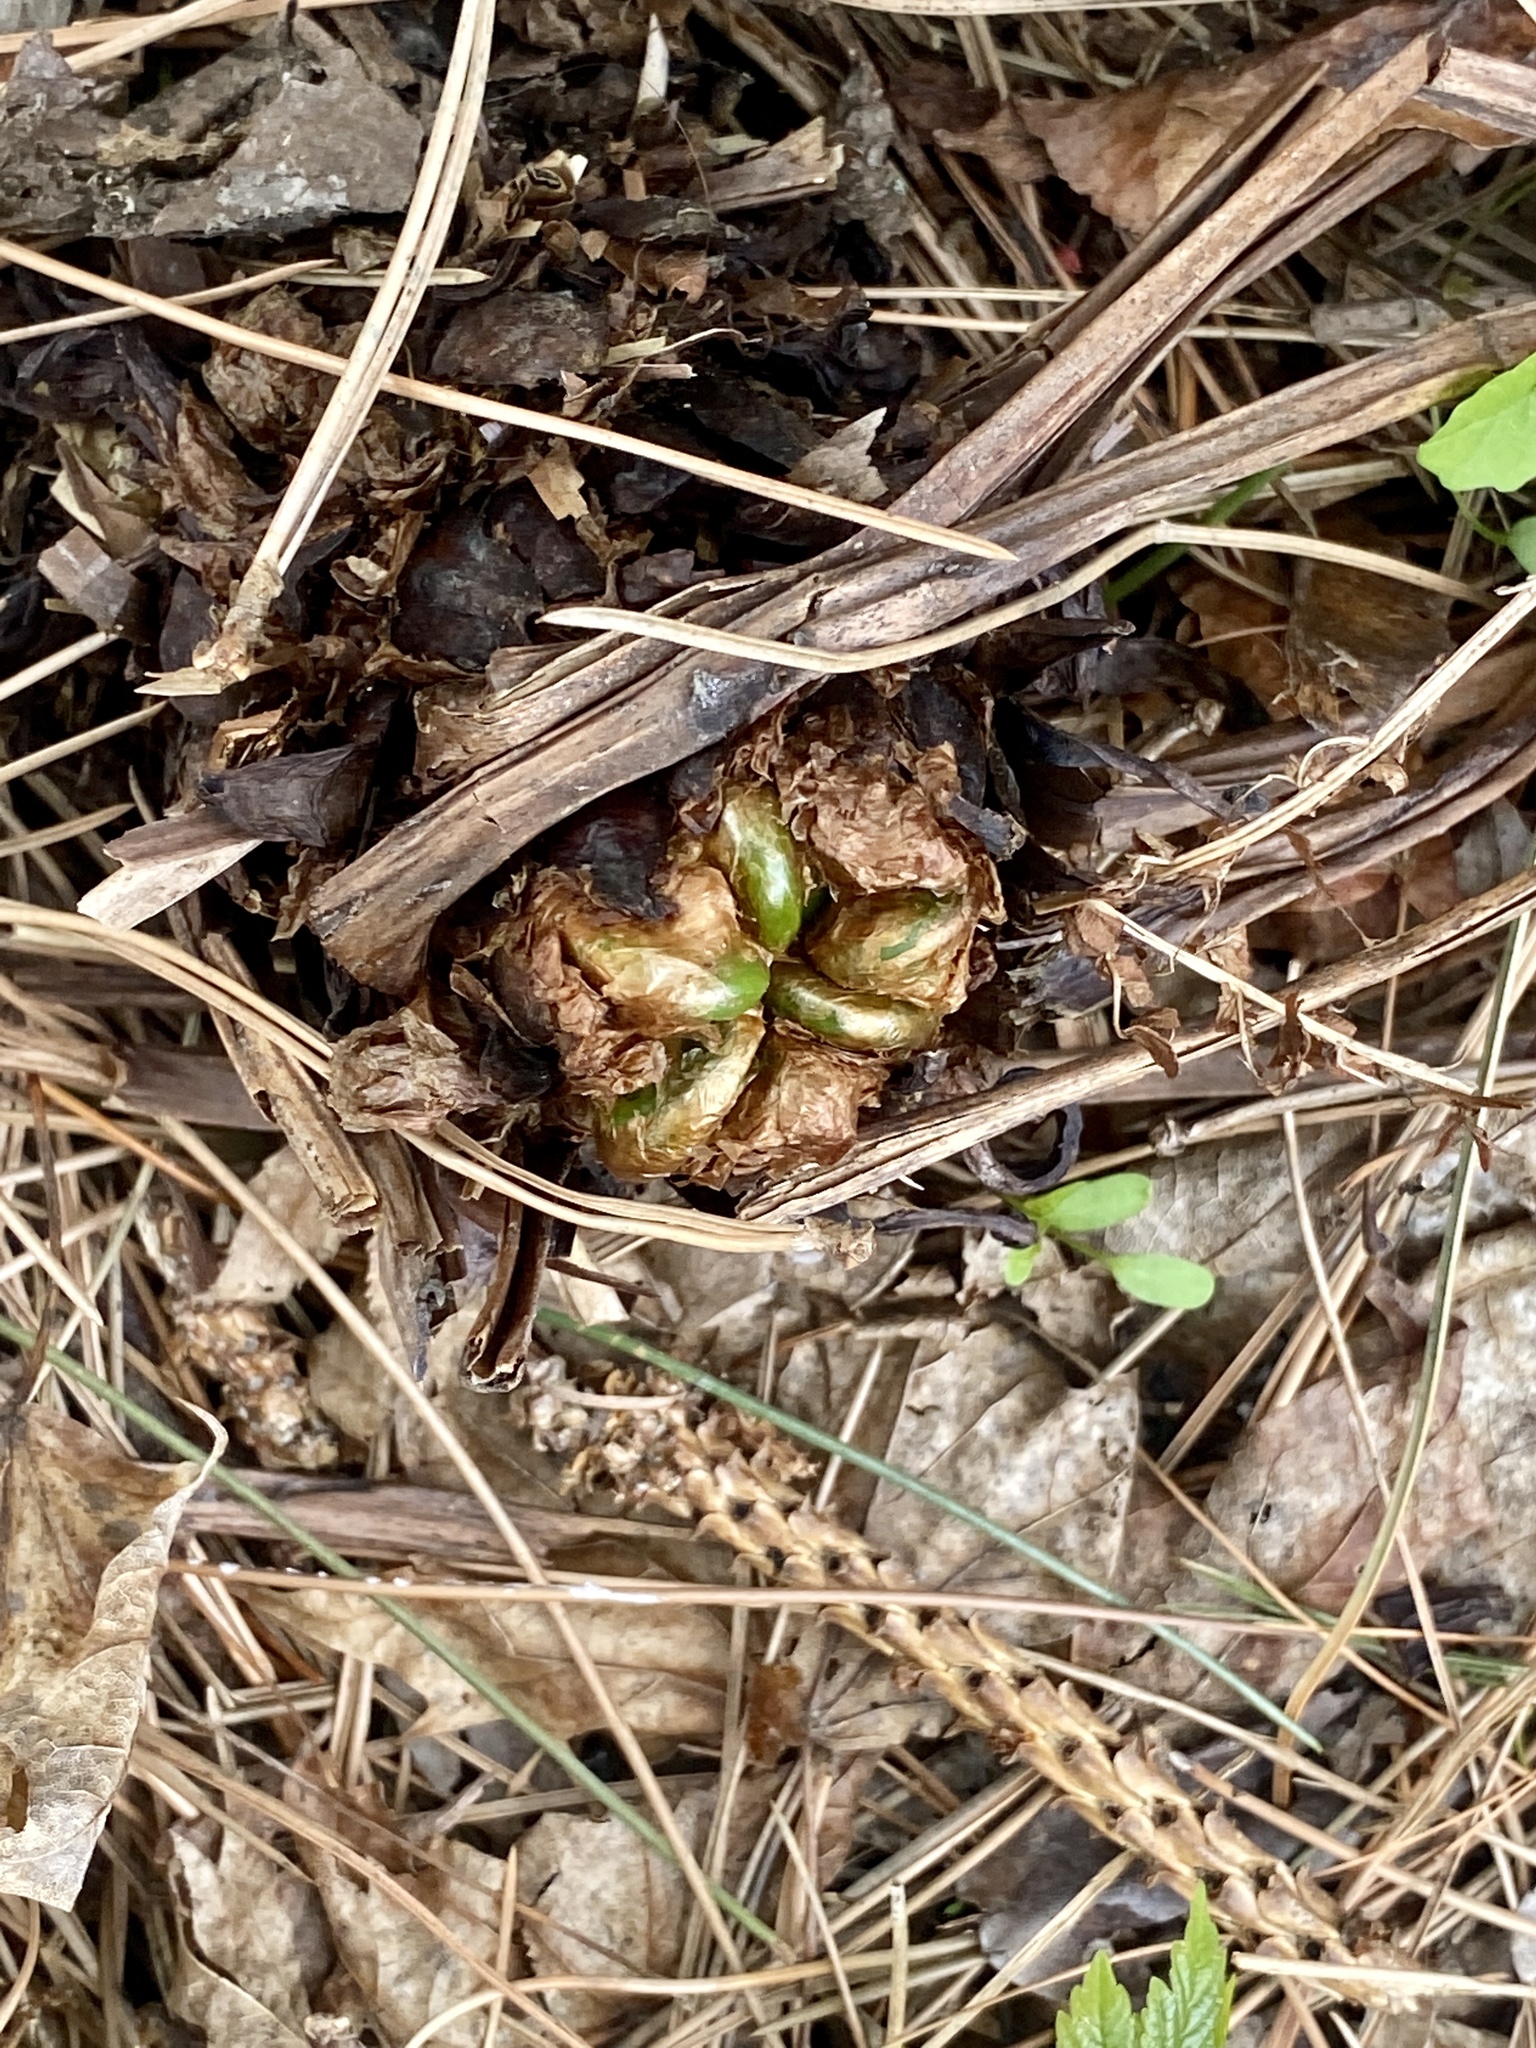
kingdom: Plantae
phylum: Tracheophyta
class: Polypodiopsida
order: Polypodiales
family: Onocleaceae
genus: Matteuccia
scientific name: Matteuccia struthiopteris
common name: Ostrich fern
